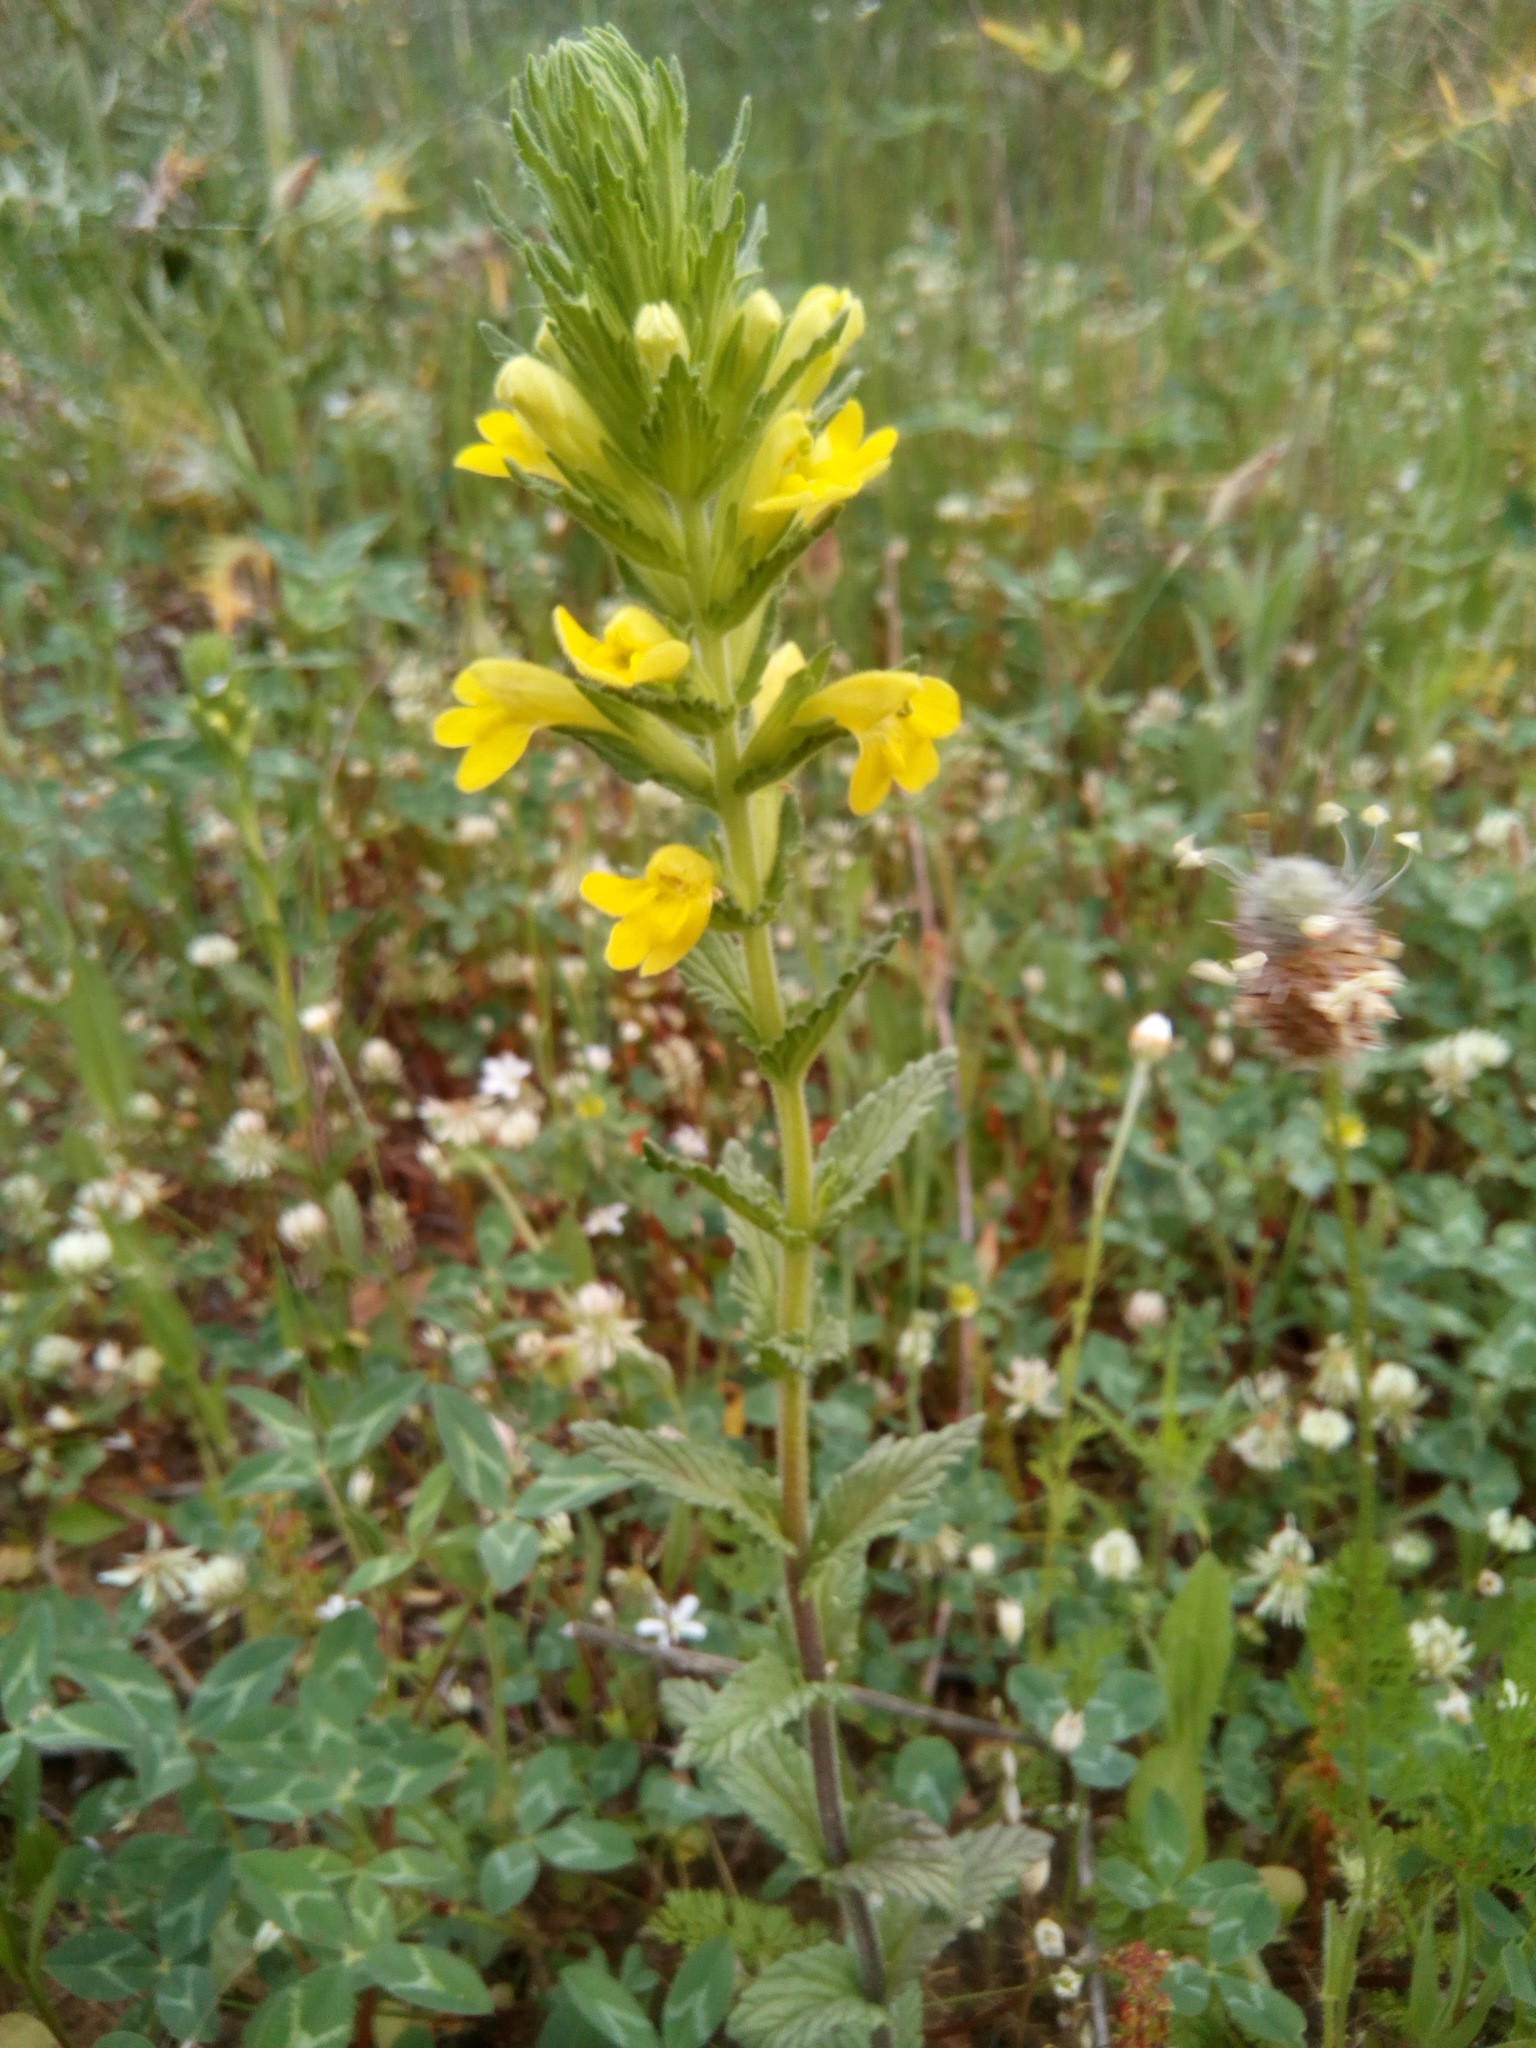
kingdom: Plantae
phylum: Tracheophyta
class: Magnoliopsida
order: Lamiales
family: Orobanchaceae
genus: Bellardia
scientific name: Bellardia viscosa
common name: Sticky parentucellia
